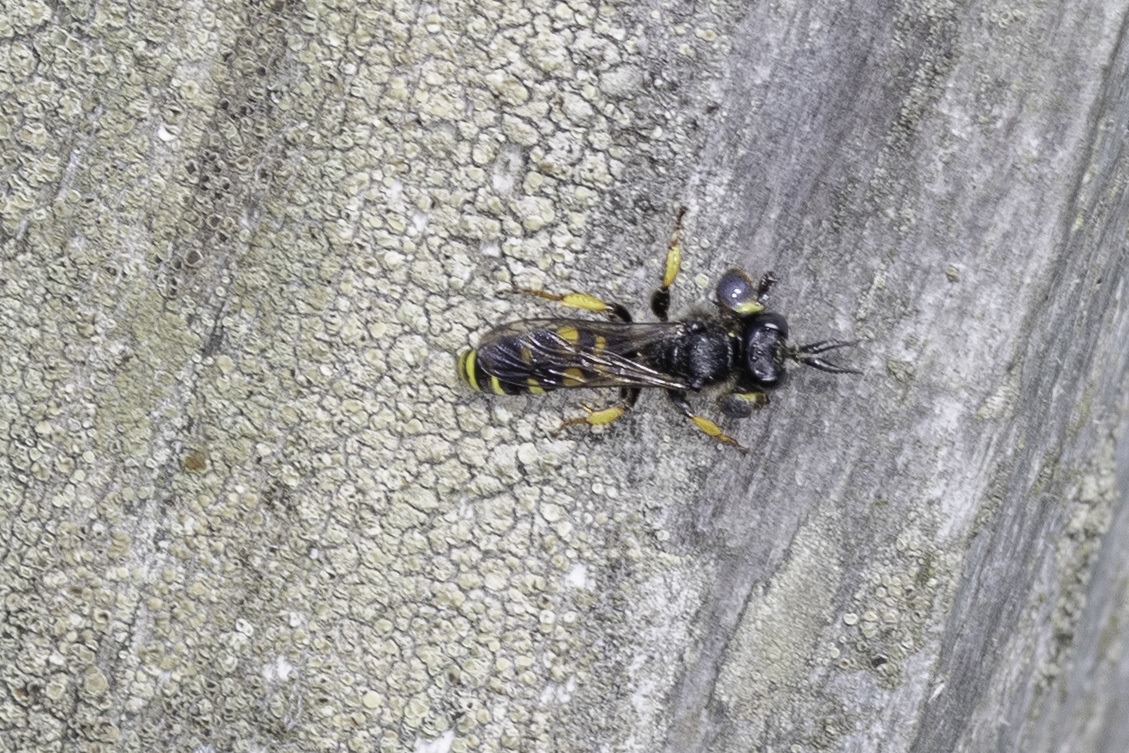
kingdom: Animalia
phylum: Arthropoda
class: Insecta
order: Hymenoptera
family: Crabronidae
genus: Crabro
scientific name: Crabro cribrarius
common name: Slender bodied digger wasp
